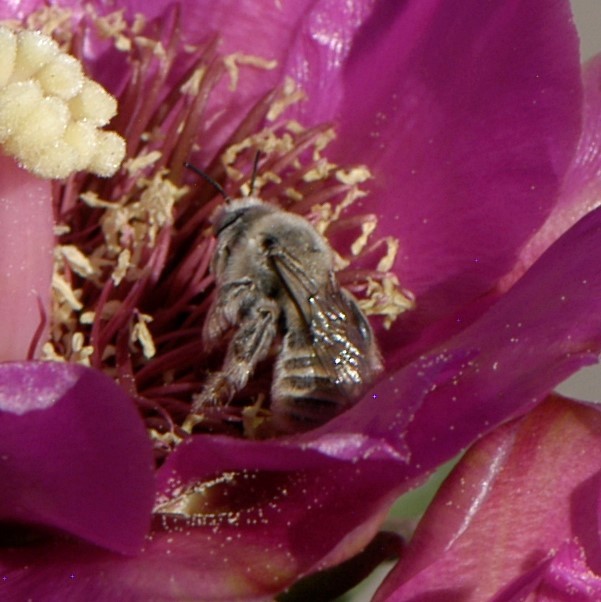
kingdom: Animalia
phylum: Arthropoda
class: Insecta
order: Hymenoptera
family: Apidae
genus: Diadasia
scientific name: Diadasia
